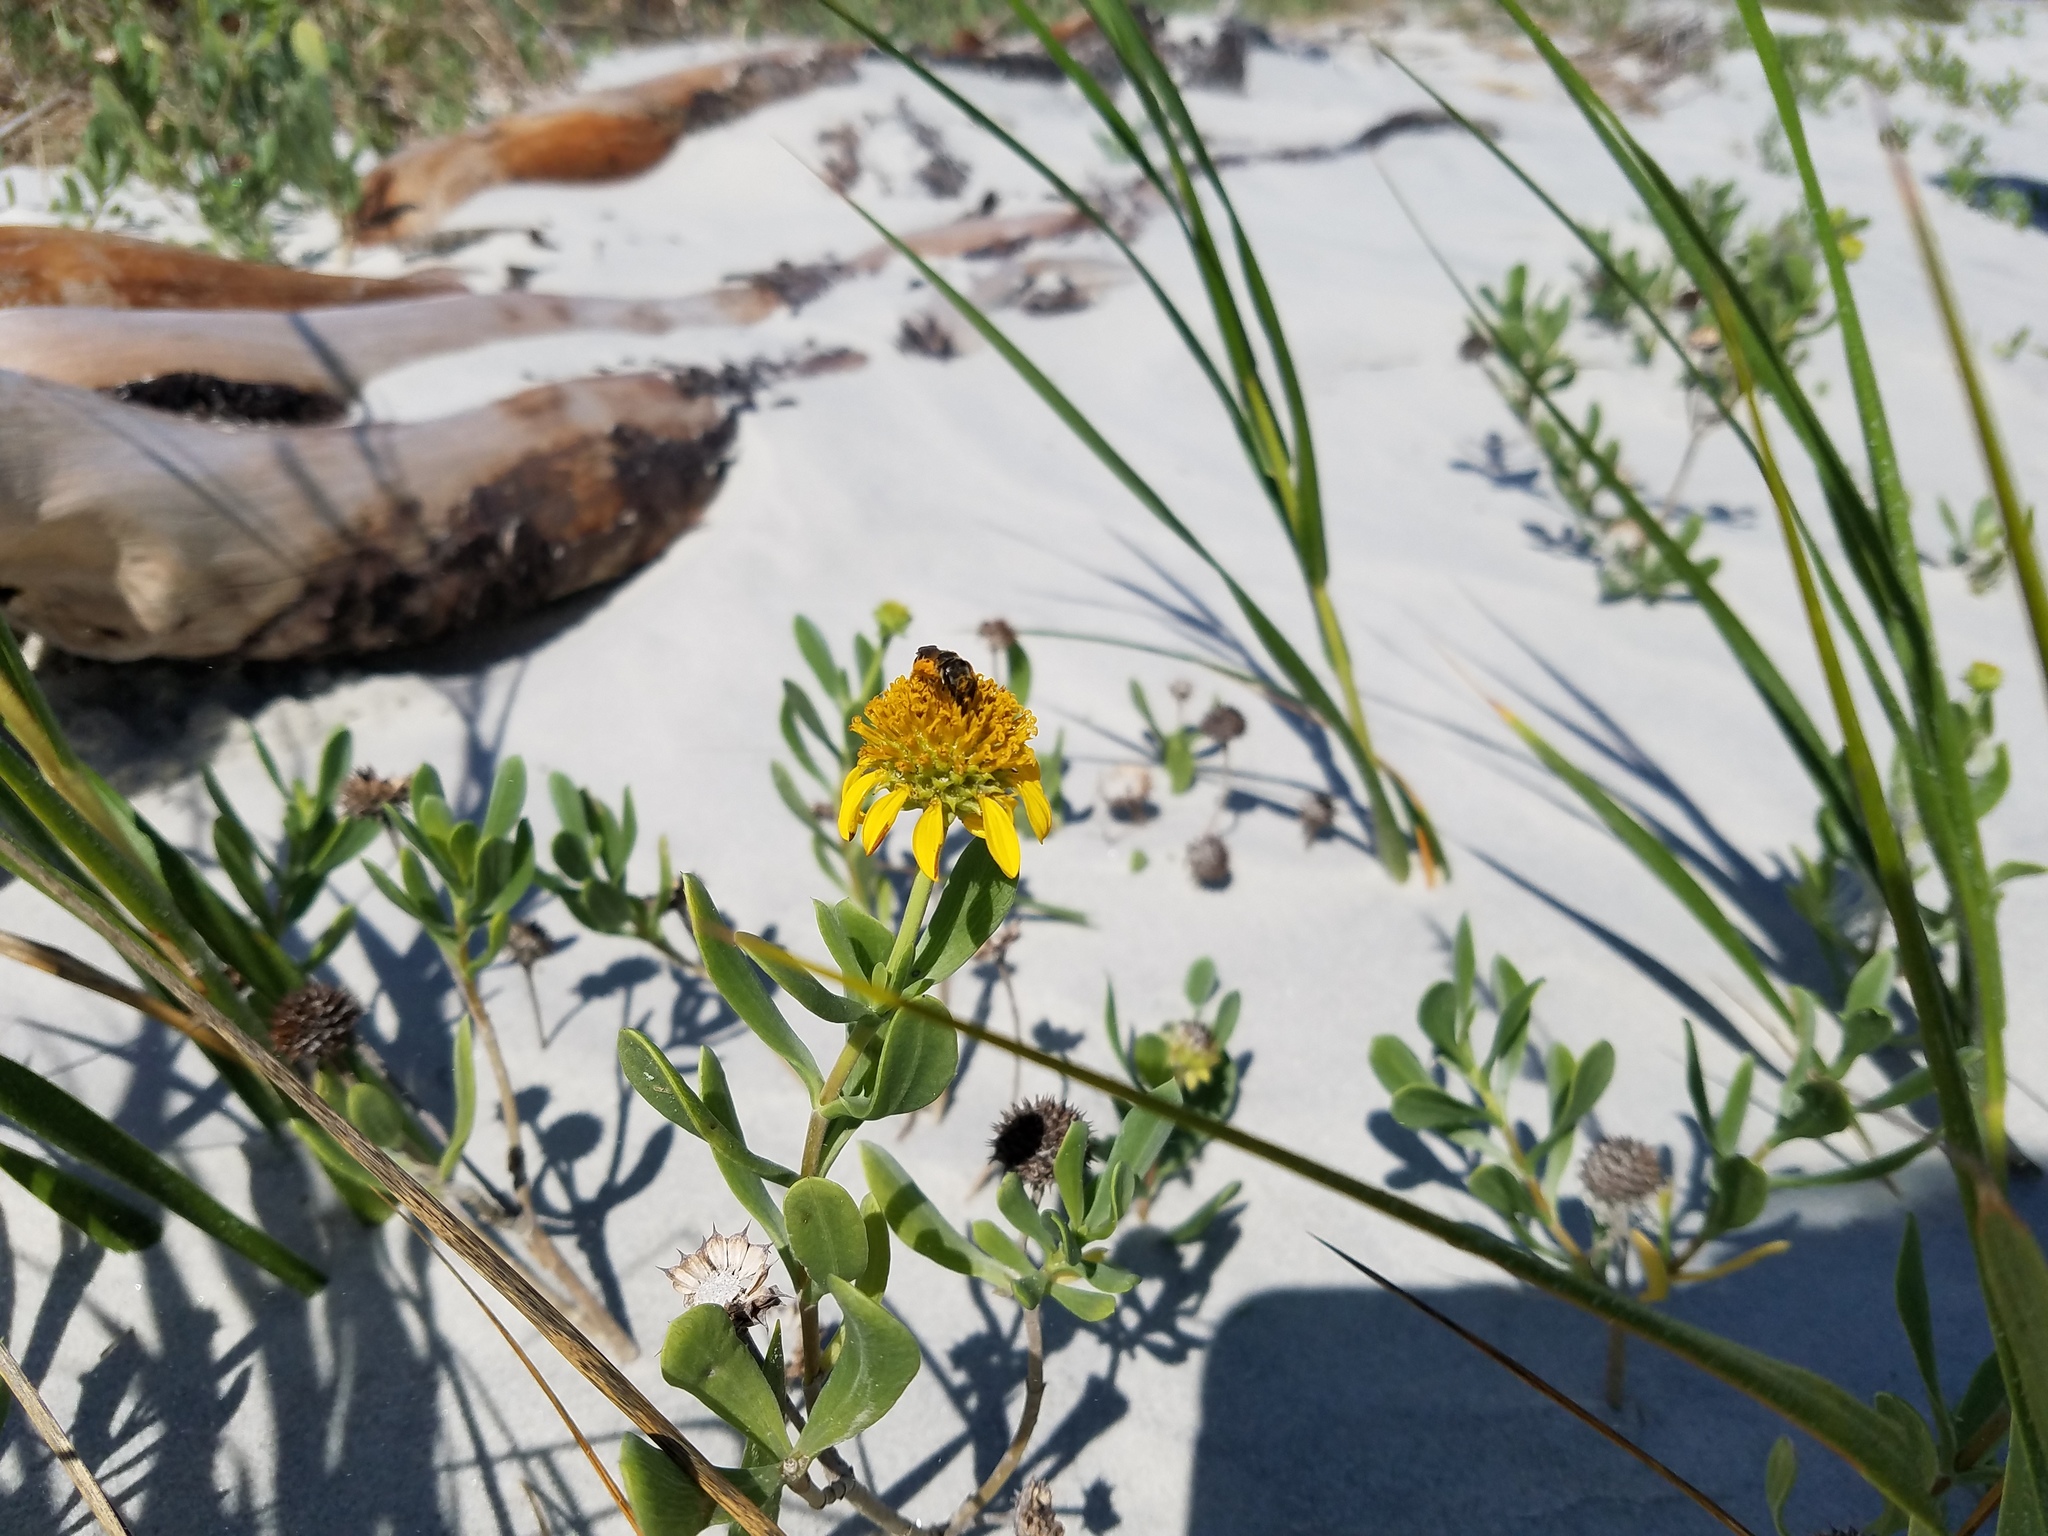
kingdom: Plantae
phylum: Tracheophyta
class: Magnoliopsida
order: Asterales
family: Asteraceae
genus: Borrichia
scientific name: Borrichia frutescens
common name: Sea oxeye
